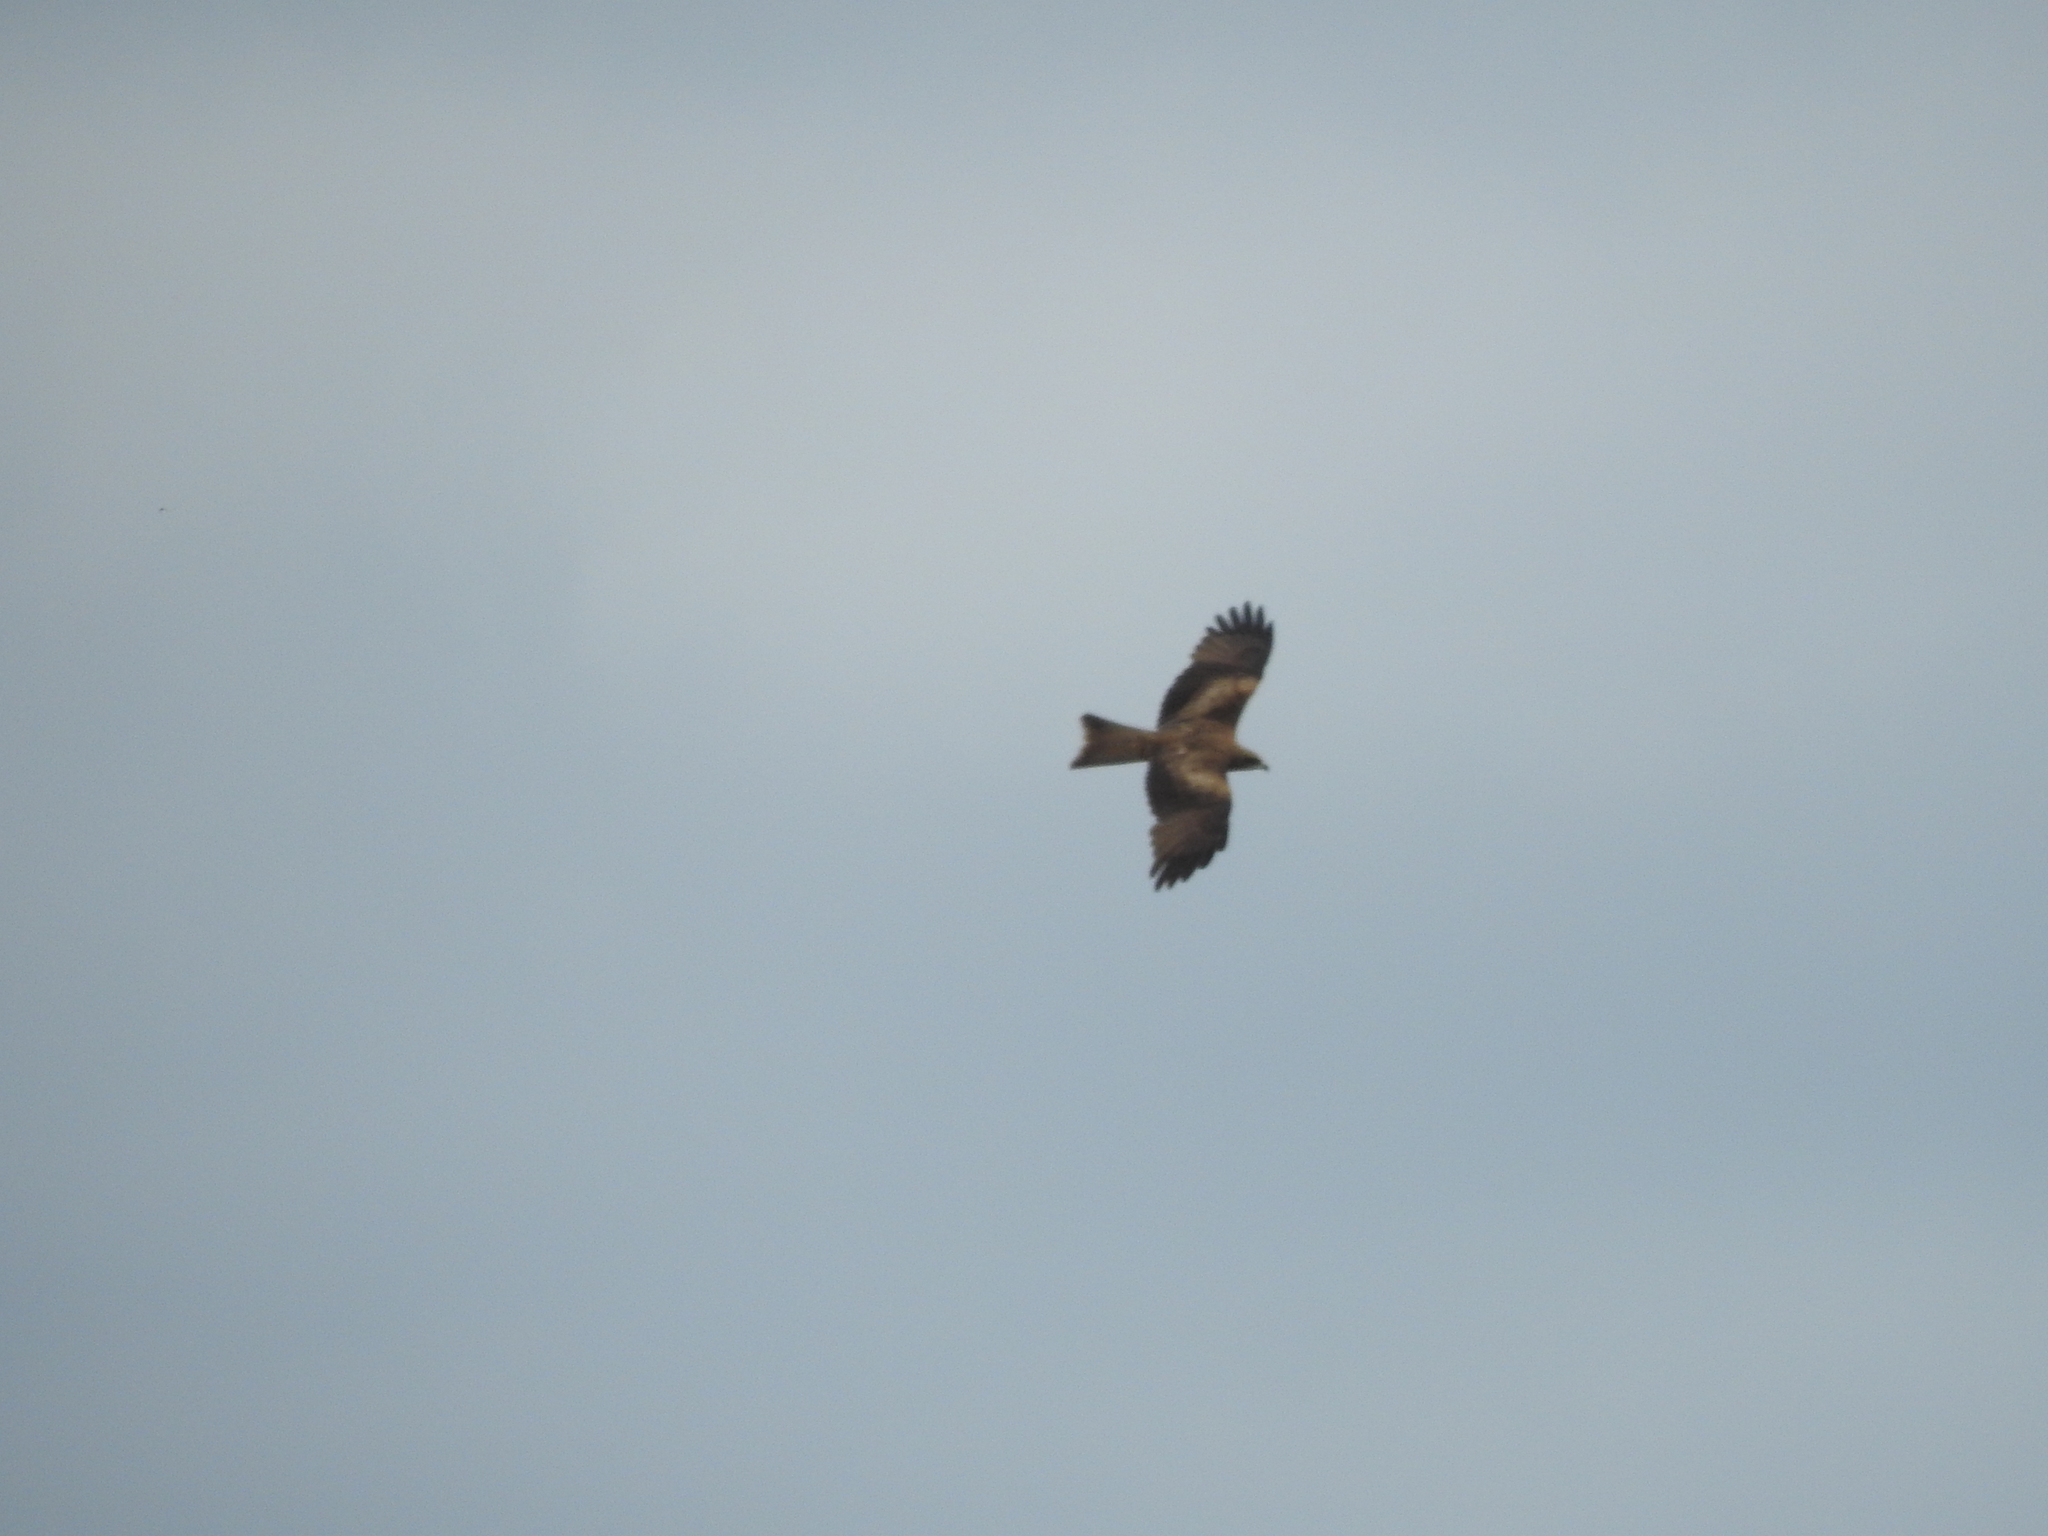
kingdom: Animalia
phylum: Chordata
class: Aves
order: Accipitriformes
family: Accipitridae
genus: Milvus
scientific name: Milvus migrans
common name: Black kite
